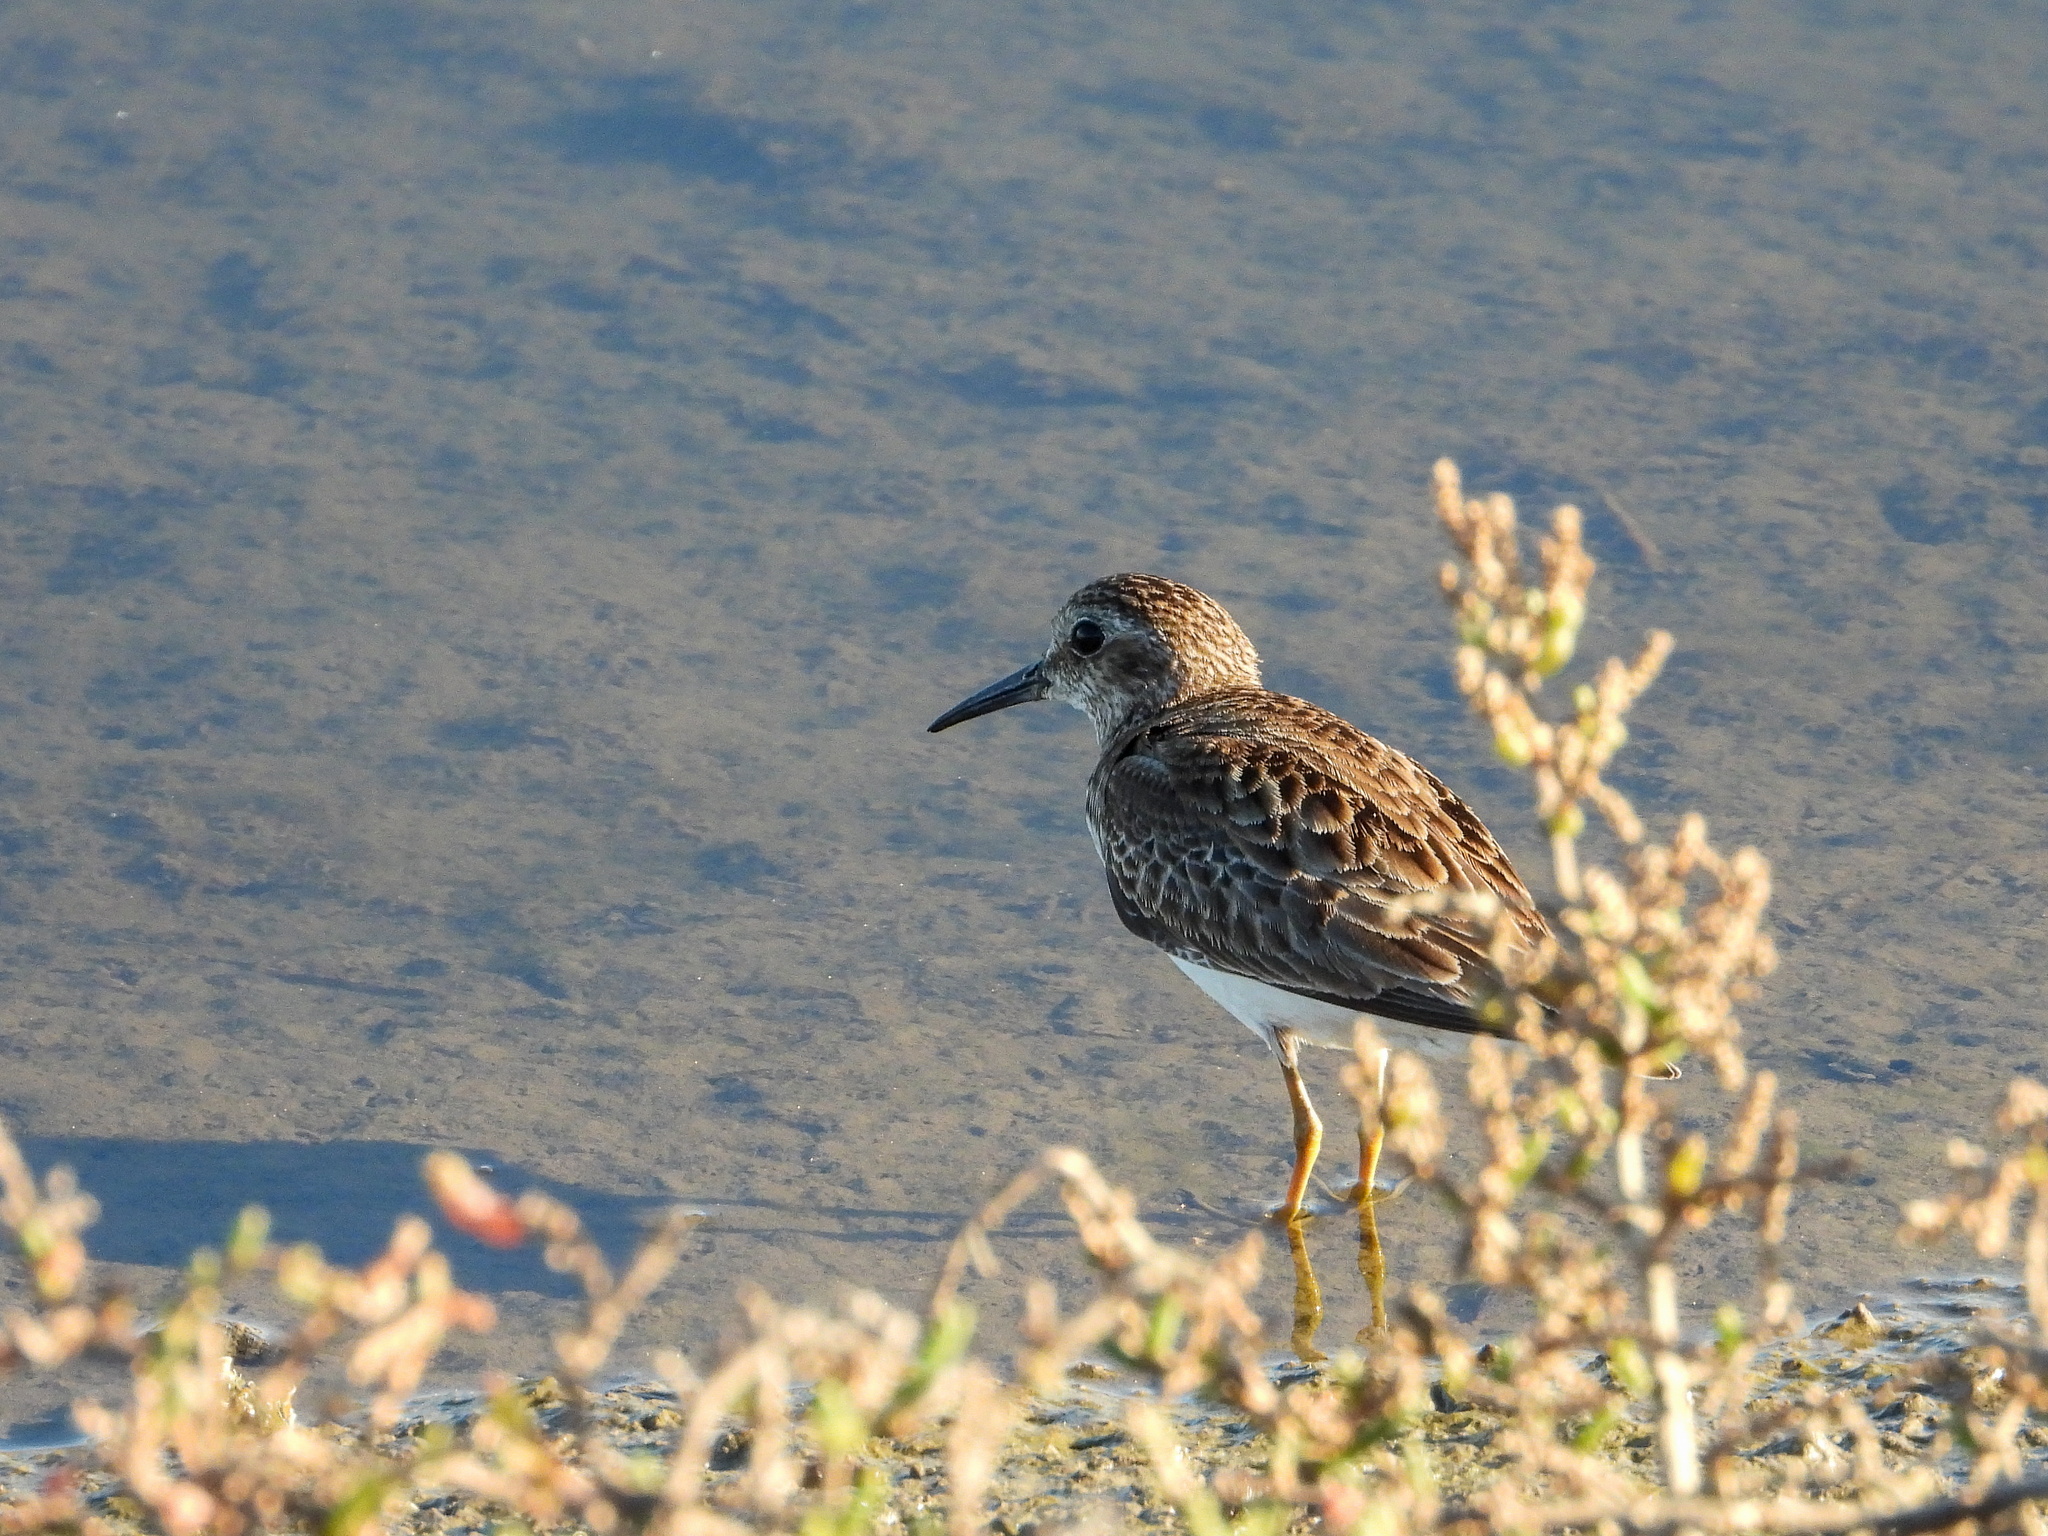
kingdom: Animalia
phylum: Chordata
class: Aves
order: Charadriiformes
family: Scolopacidae
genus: Calidris
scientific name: Calidris minutilla
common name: Least sandpiper
